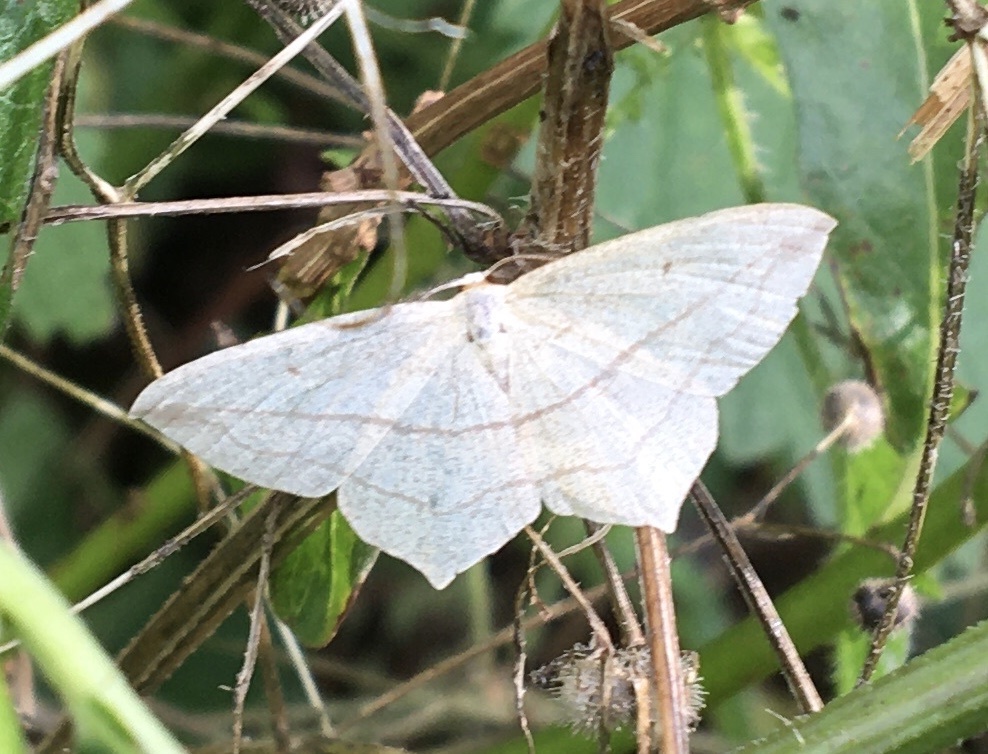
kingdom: Animalia
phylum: Arthropoda
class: Insecta
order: Lepidoptera
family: Geometridae
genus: Timandra
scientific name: Timandra comae
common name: Blood-vein
